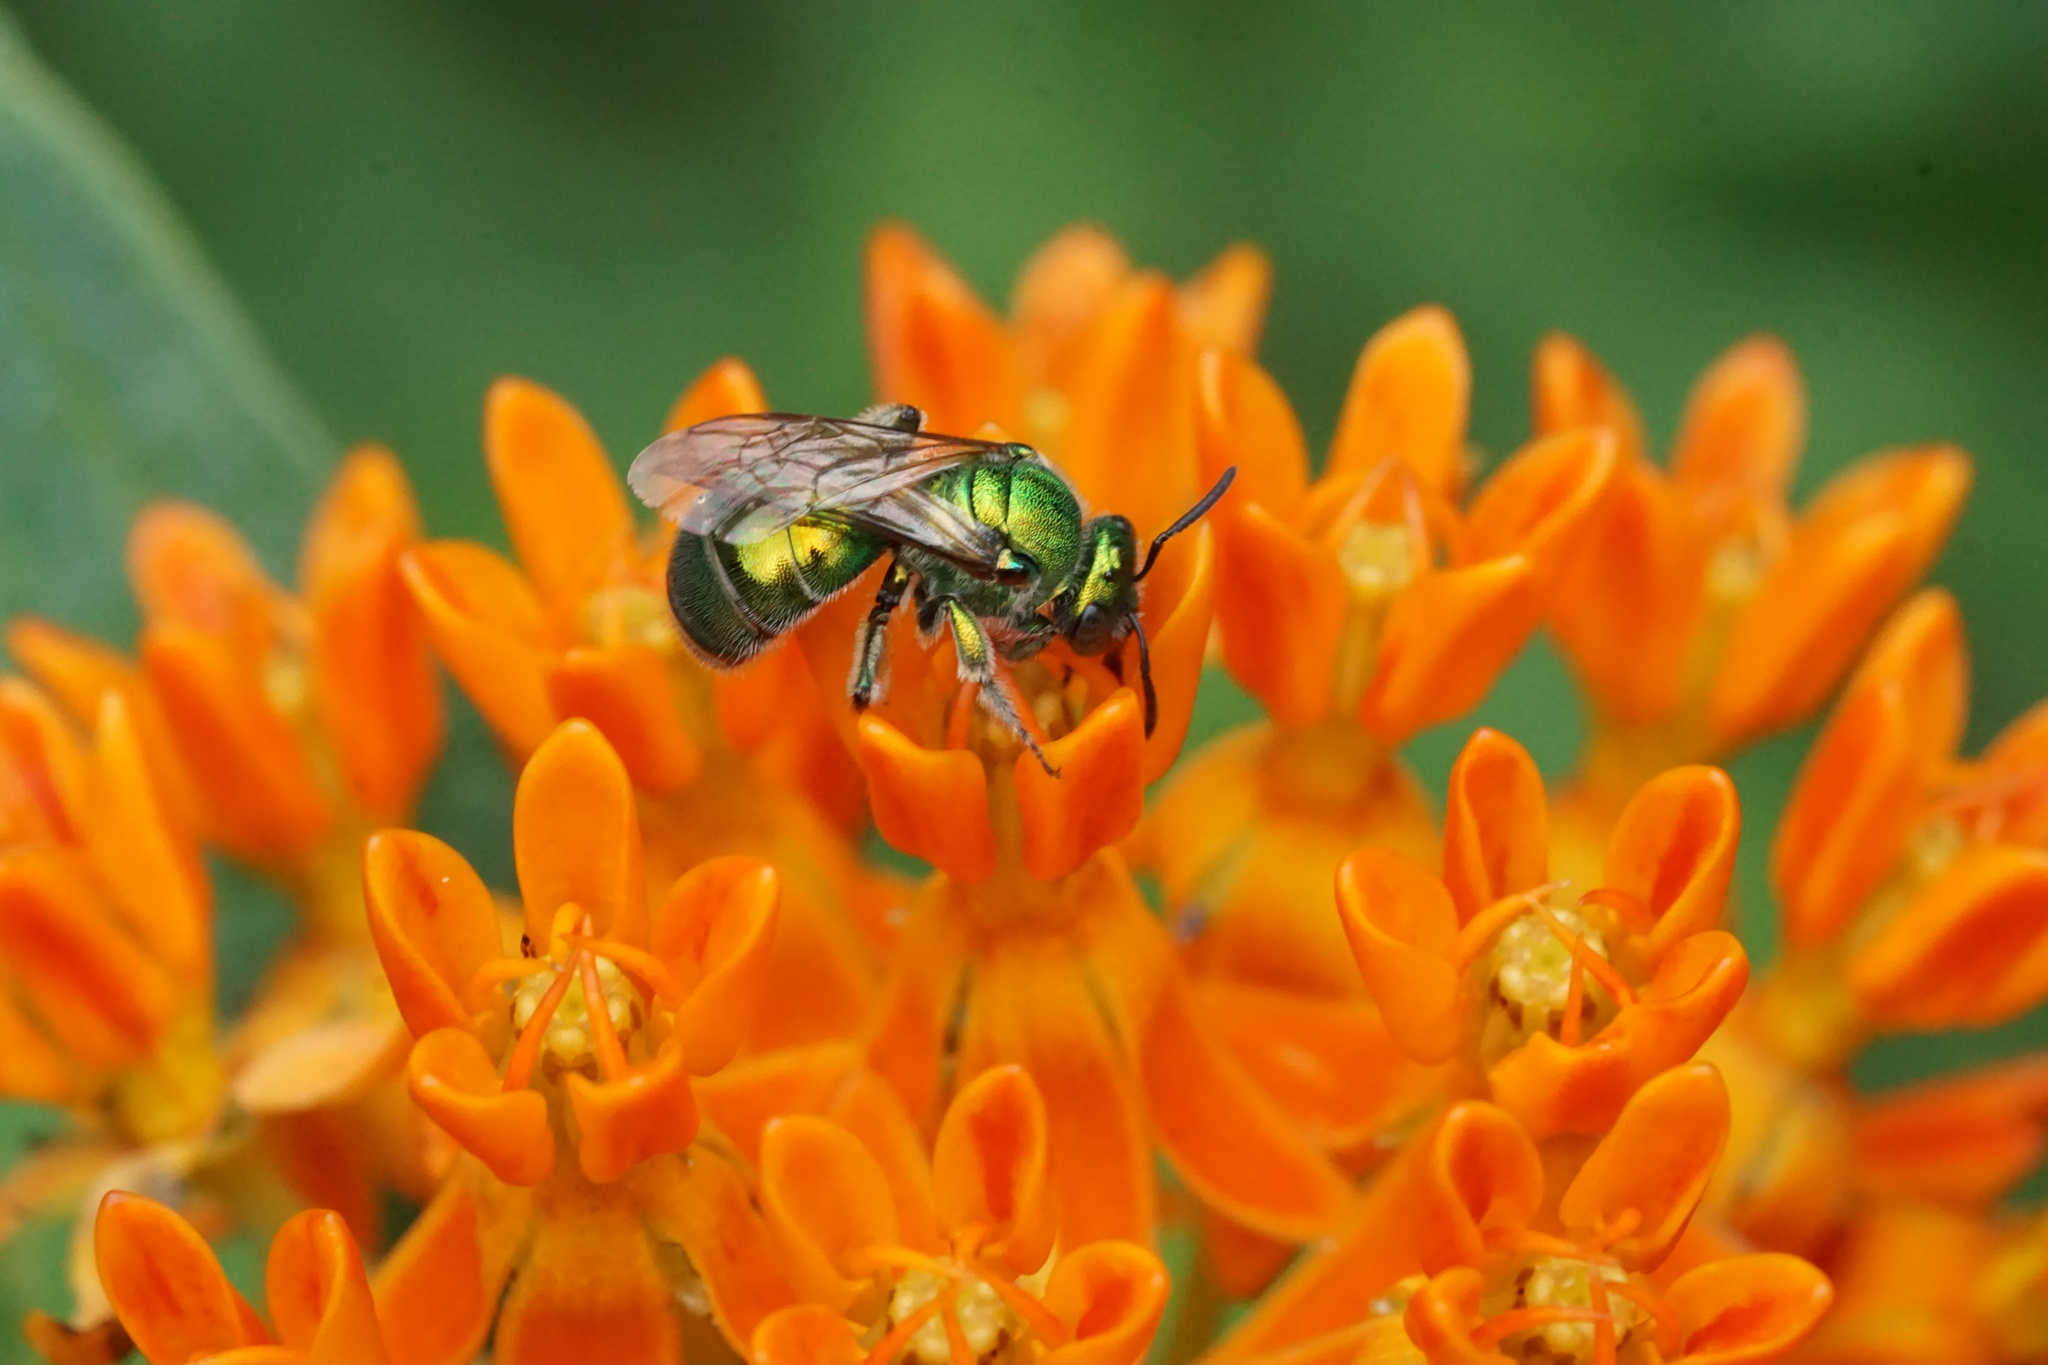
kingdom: Animalia
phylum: Arthropoda
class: Insecta
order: Hymenoptera
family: Halictidae
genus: Augochloropsis
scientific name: Augochloropsis viridula
